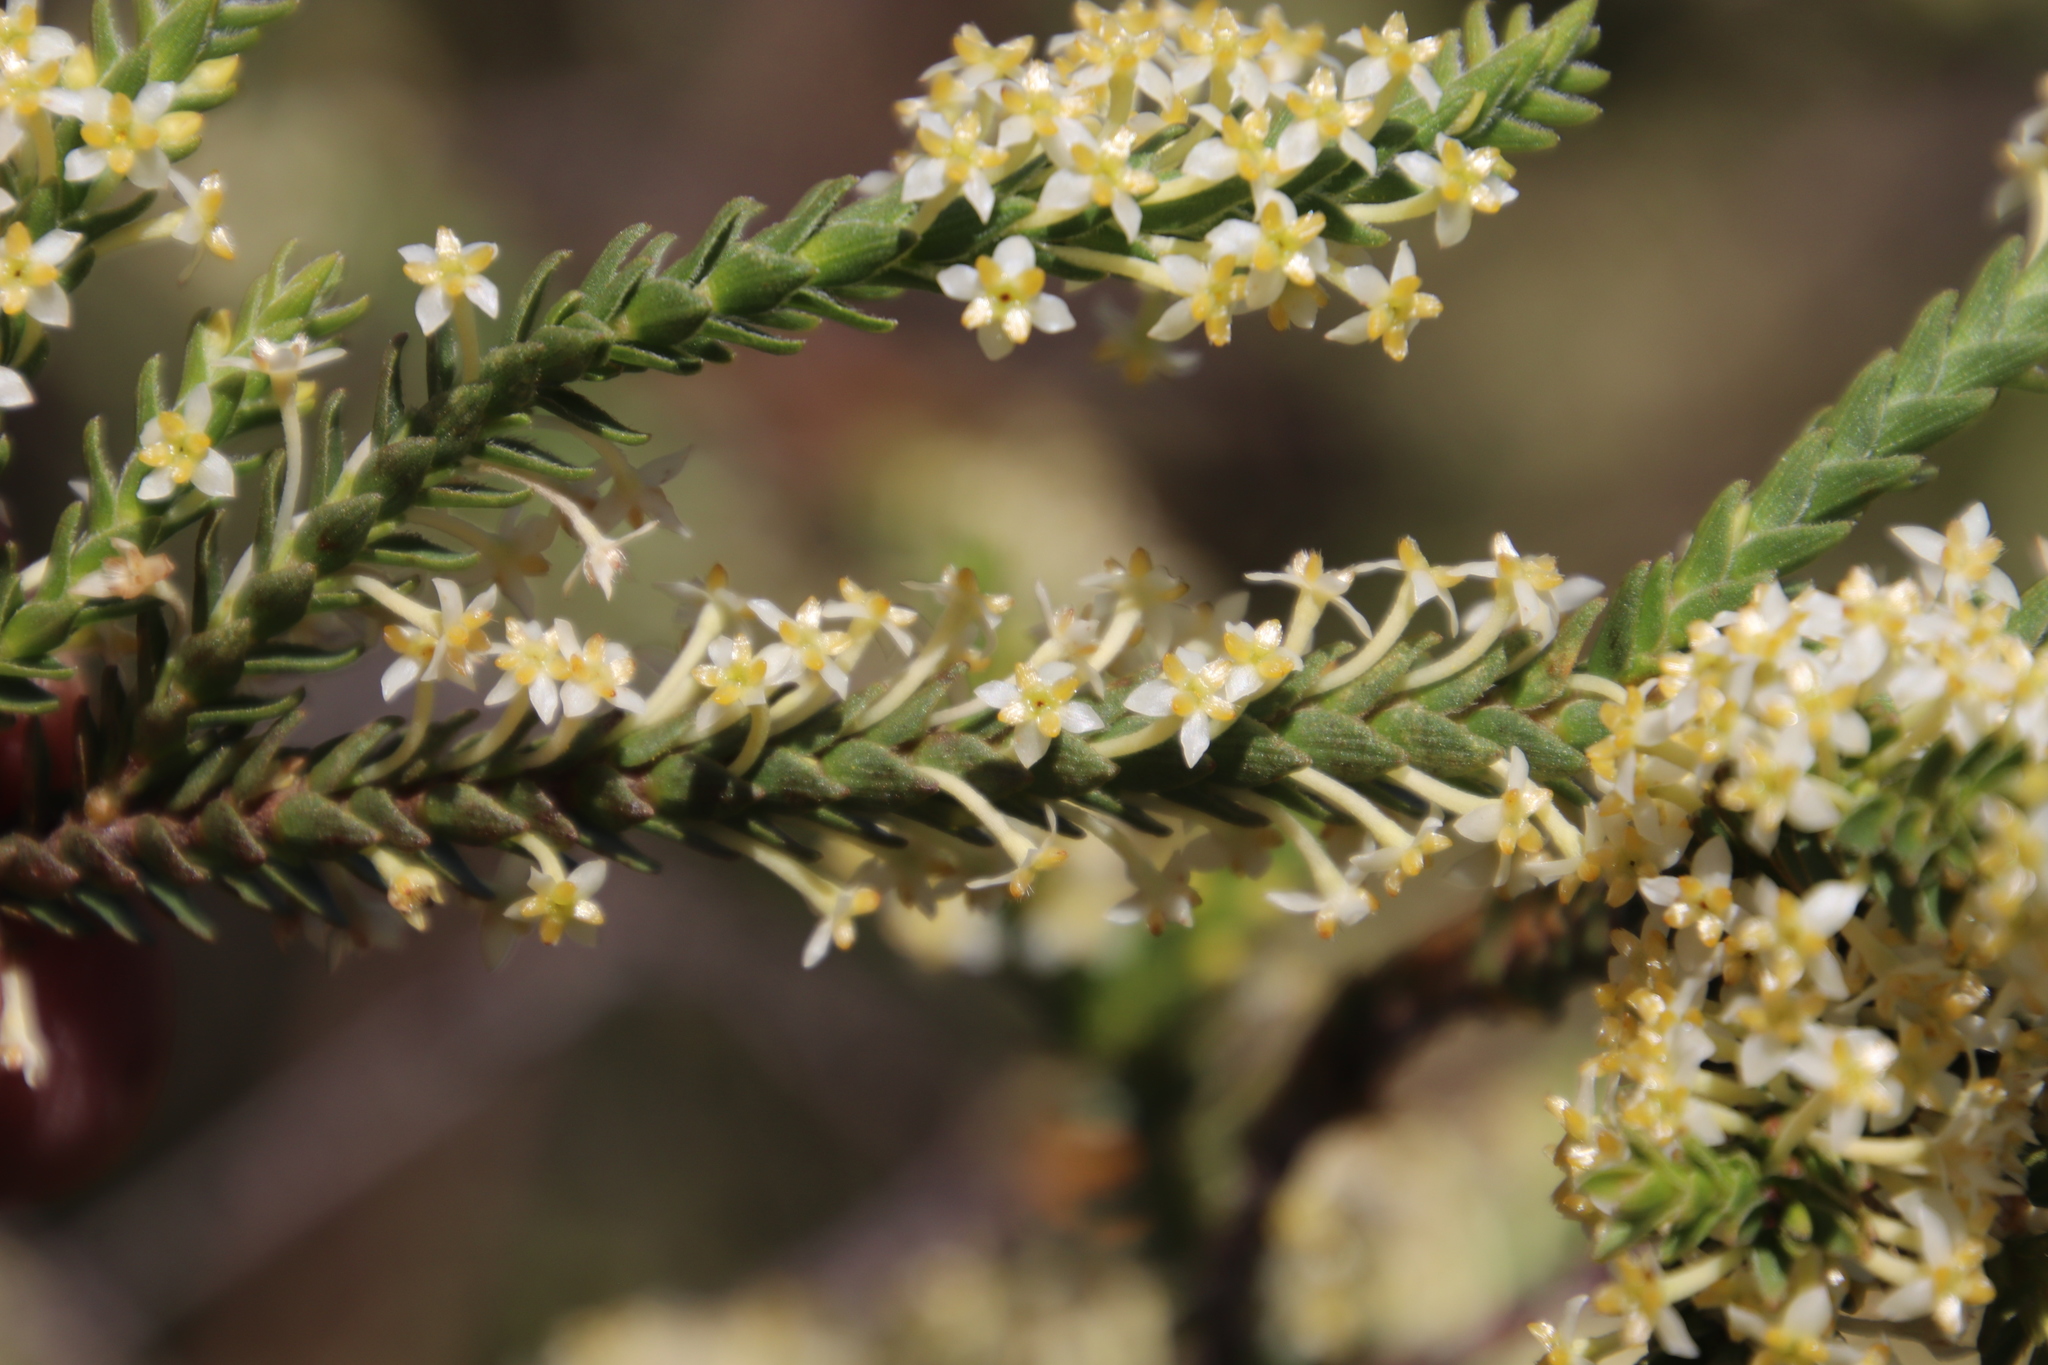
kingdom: Plantae
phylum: Tracheophyta
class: Magnoliopsida
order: Malvales
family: Thymelaeaceae
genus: Struthiola
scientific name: Struthiola striata
